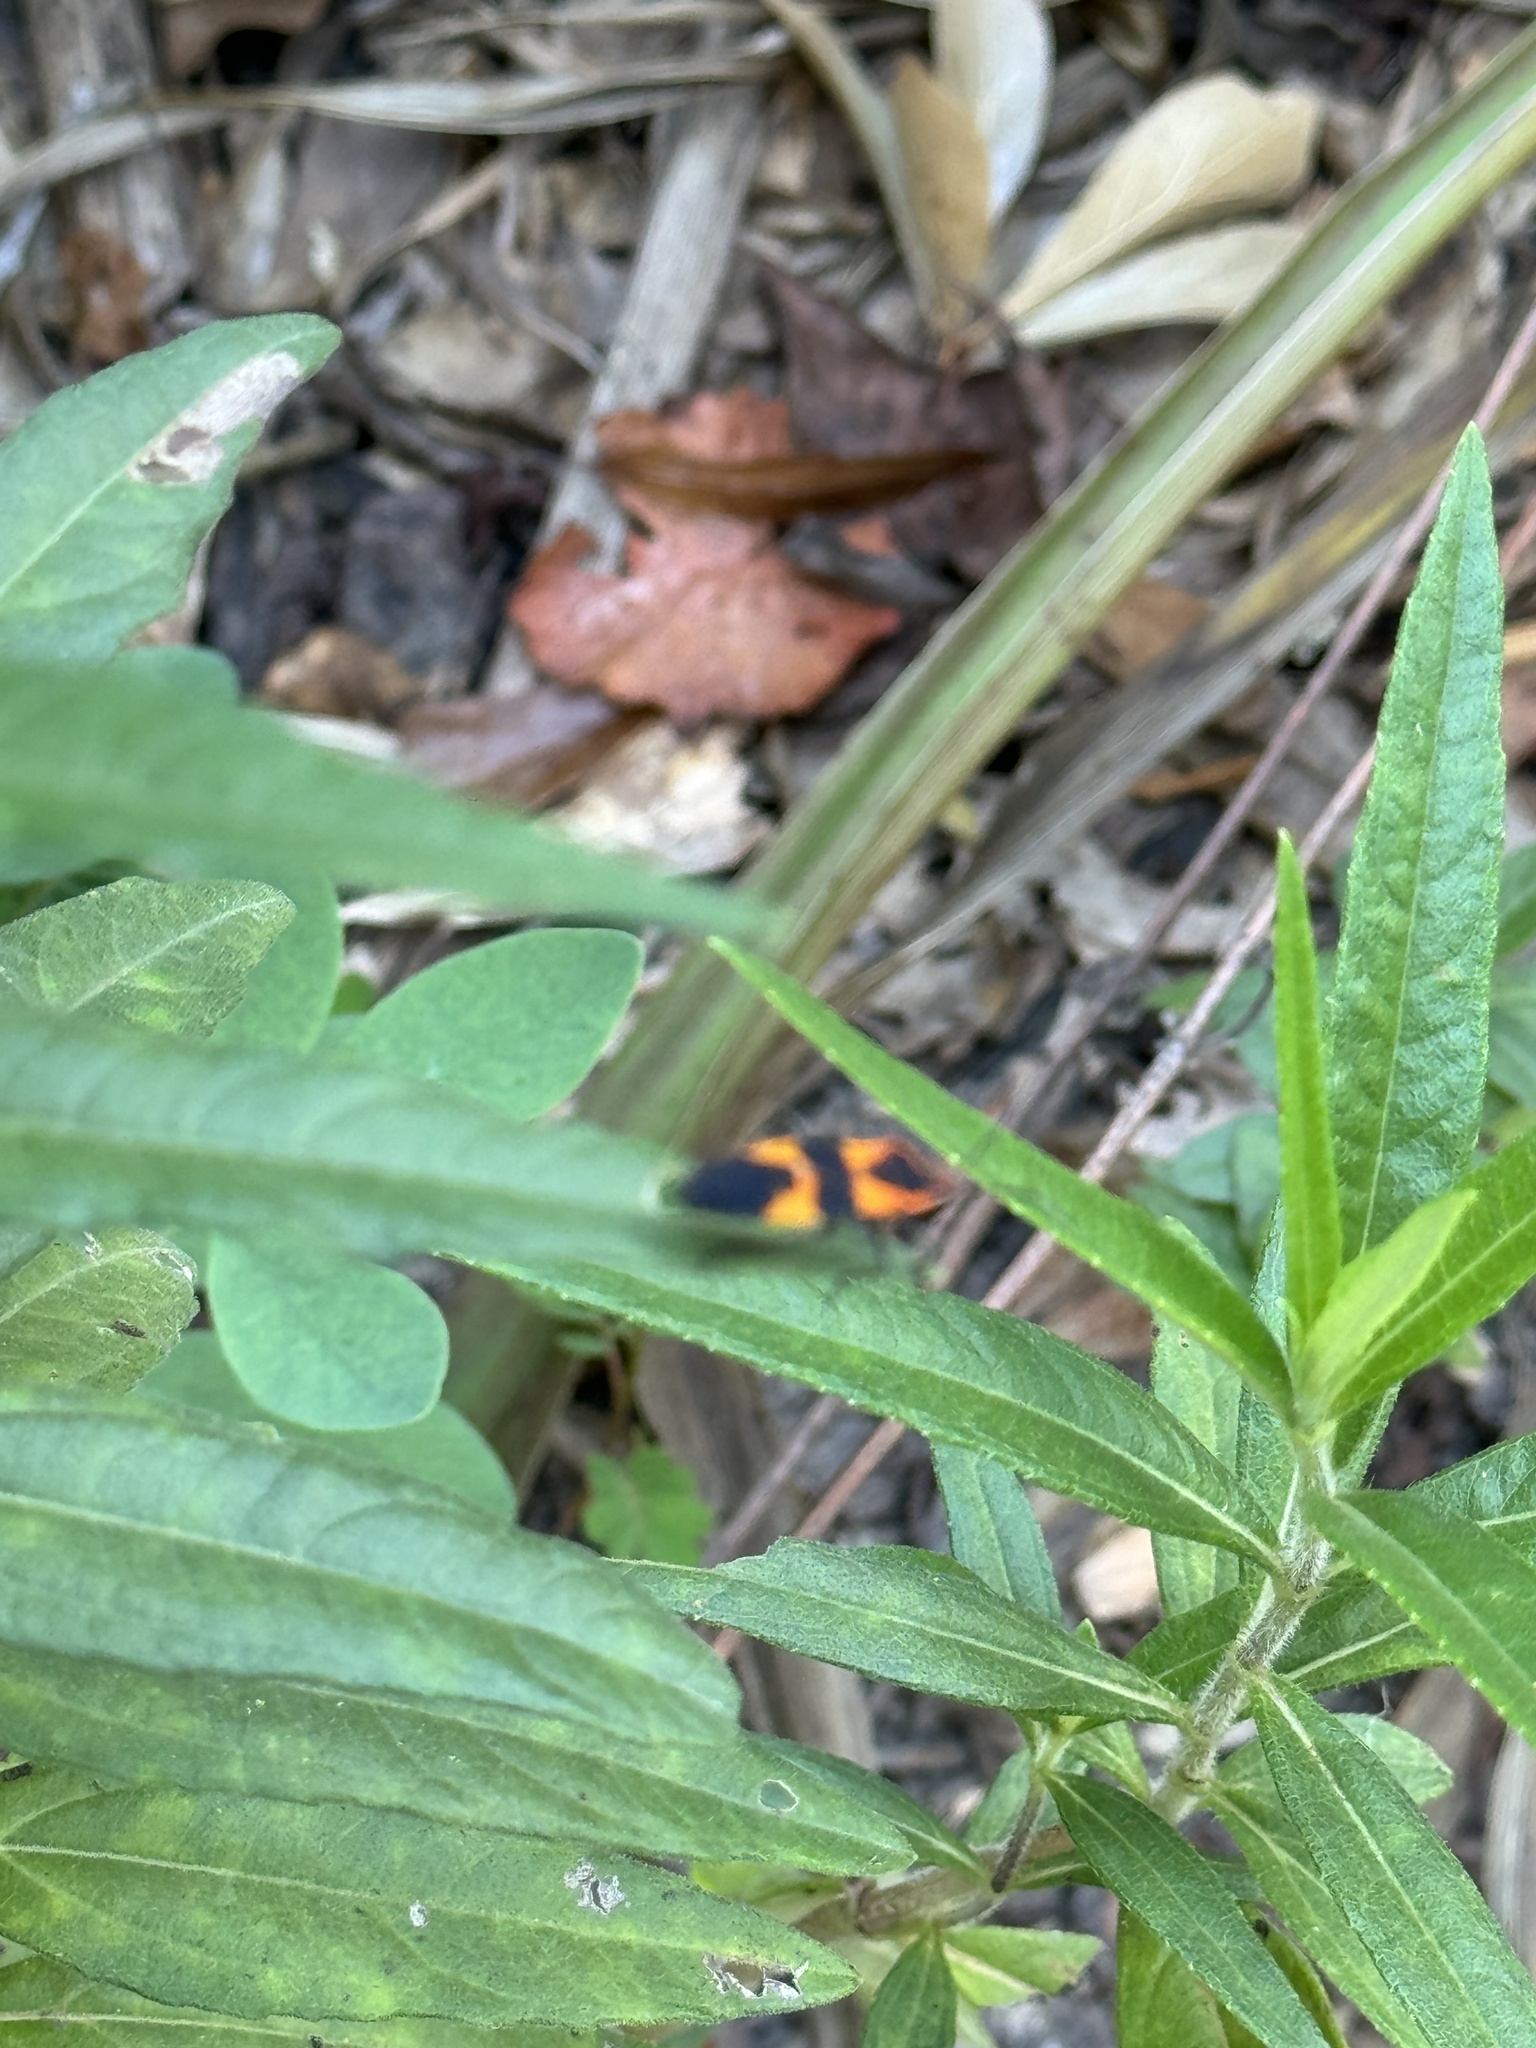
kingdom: Animalia
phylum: Arthropoda
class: Insecta
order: Hemiptera
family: Lygaeidae
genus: Oncopeltus
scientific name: Oncopeltus fasciatus
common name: Large milkweed bug
